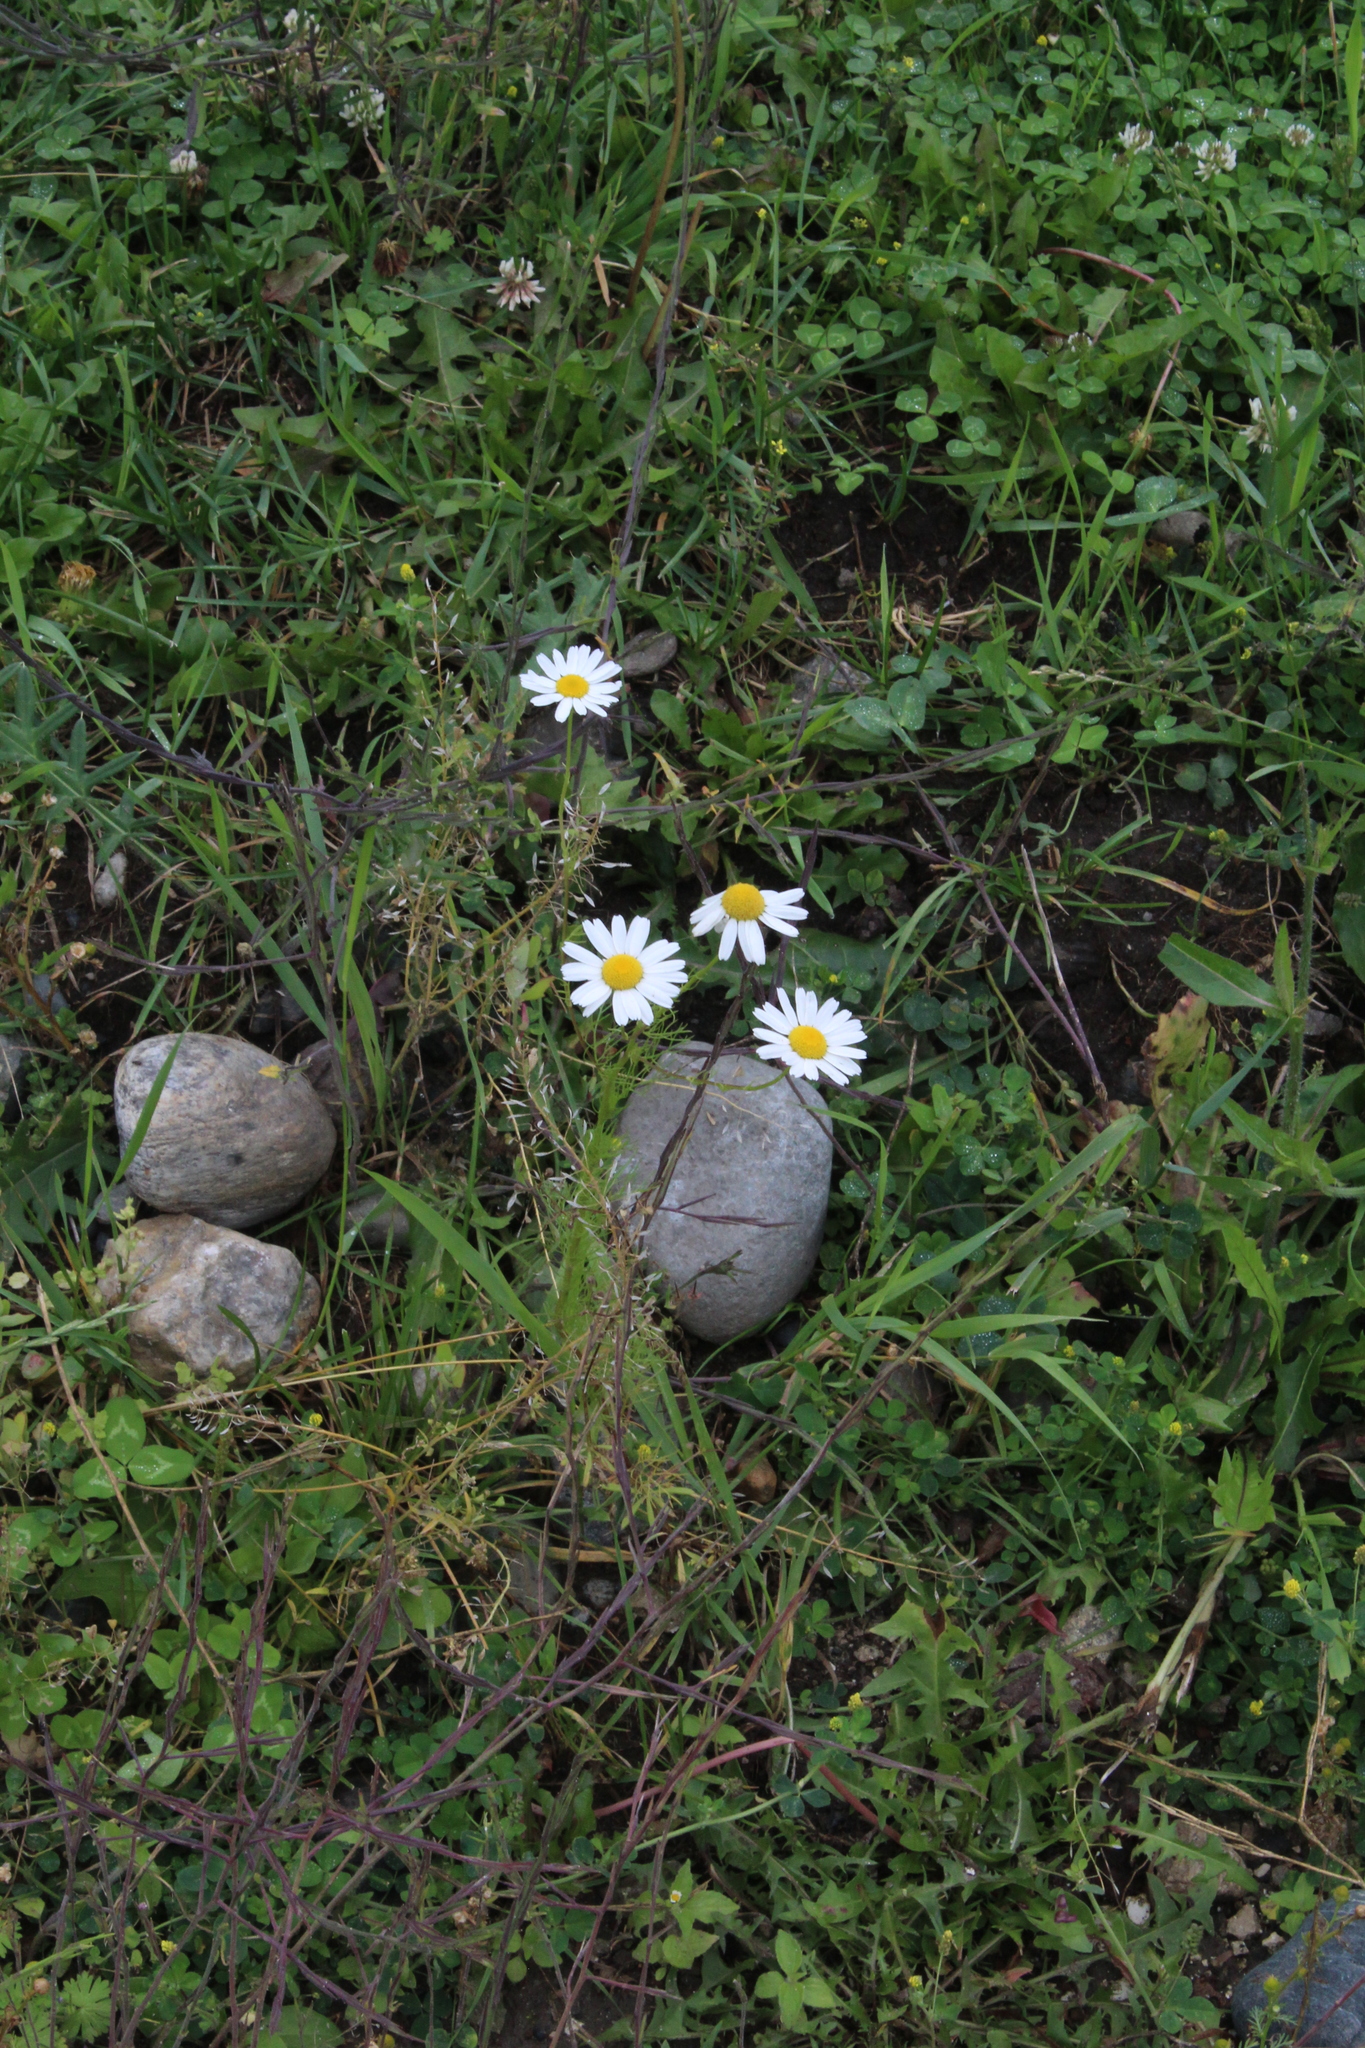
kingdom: Plantae
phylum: Tracheophyta
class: Magnoliopsida
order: Asterales
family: Asteraceae
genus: Tripleurospermum
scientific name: Tripleurospermum inodorum
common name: Scentless mayweed
